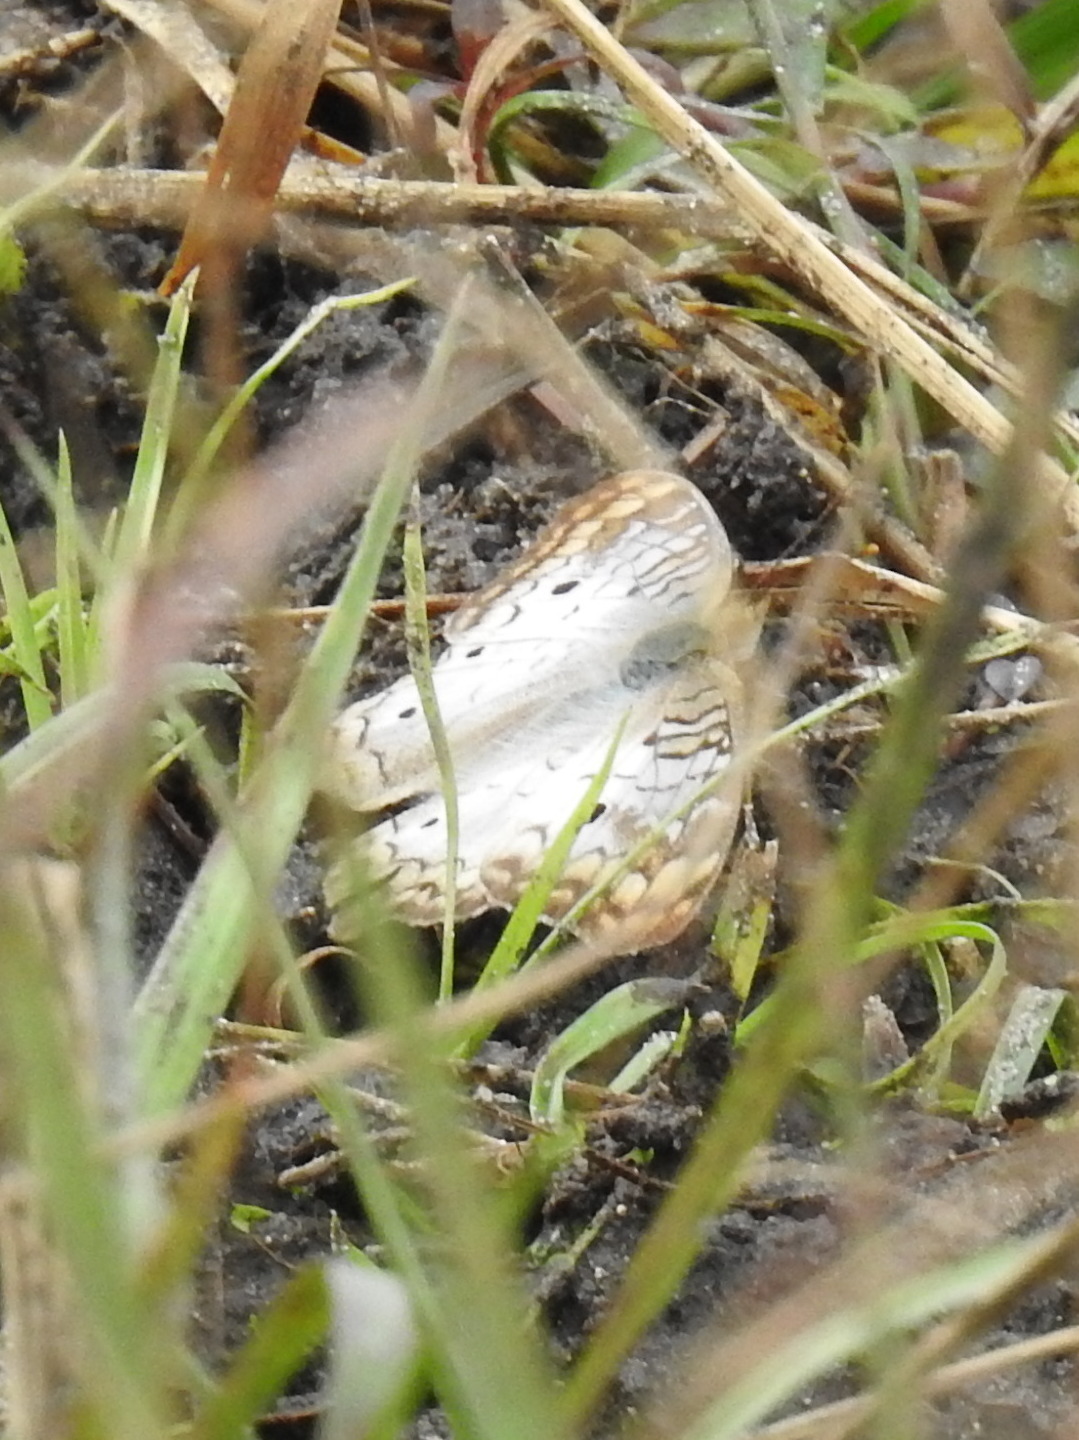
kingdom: Animalia
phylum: Arthropoda
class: Insecta
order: Lepidoptera
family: Nymphalidae
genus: Anartia
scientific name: Anartia jatrophae
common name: White peacock
